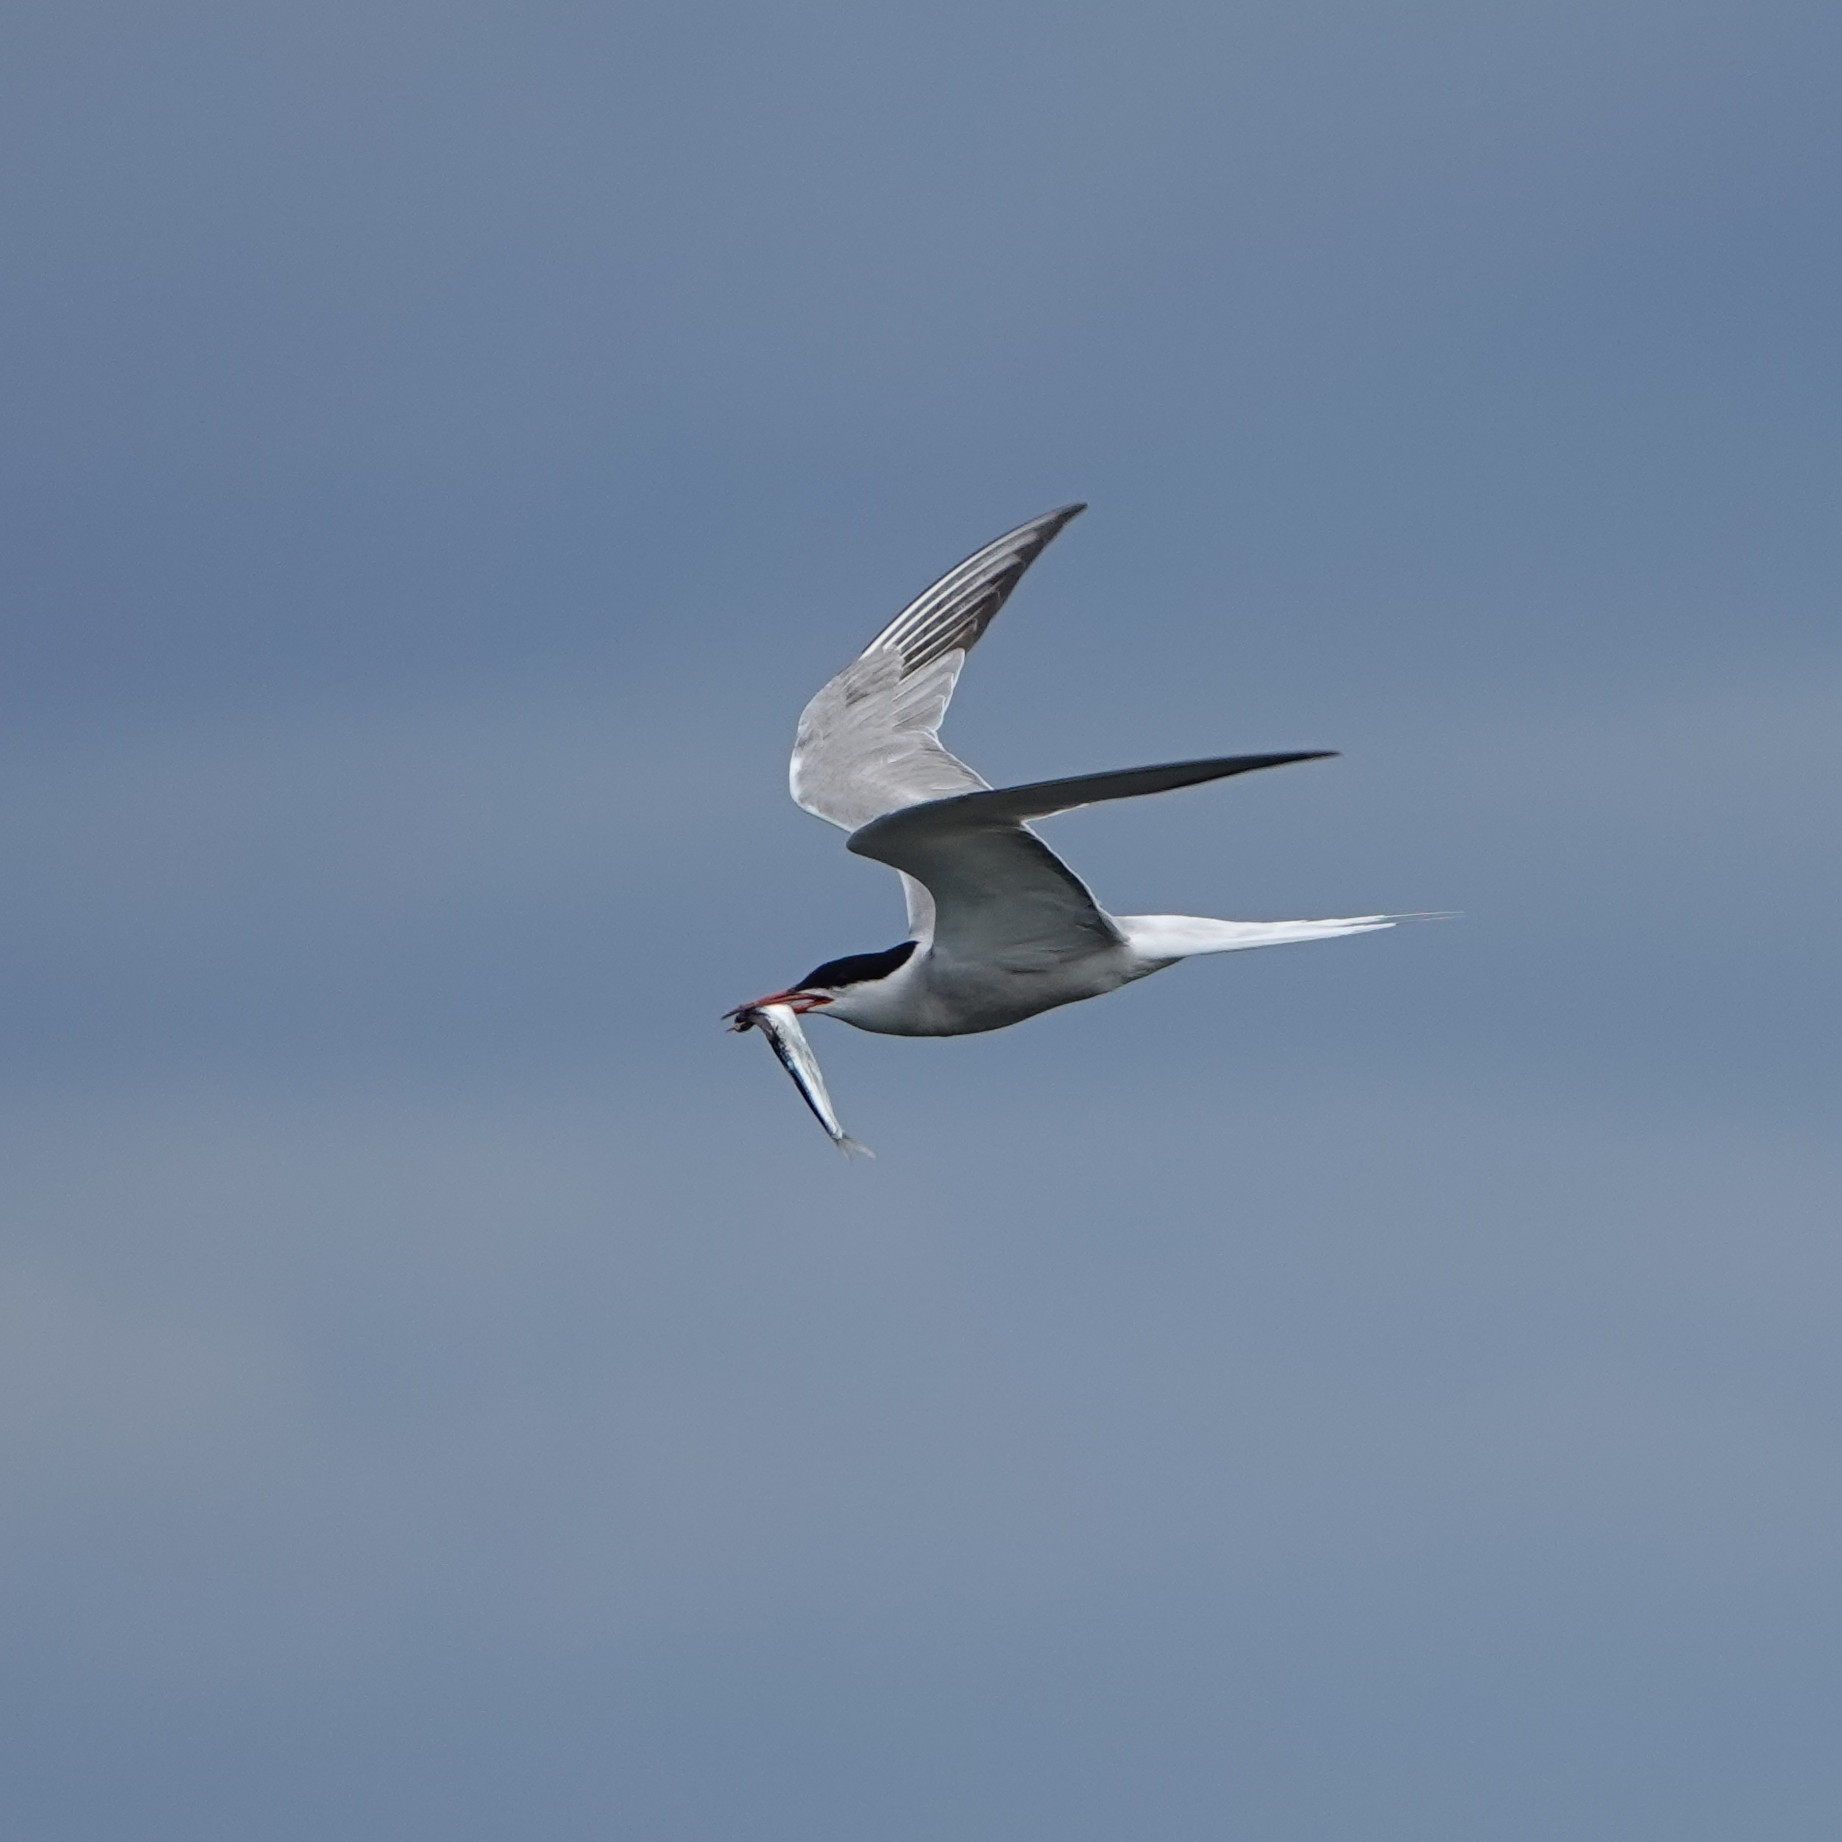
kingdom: Animalia
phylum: Chordata
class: Aves
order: Charadriiformes
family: Laridae
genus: Sterna
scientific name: Sterna hirundo
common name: Common tern
